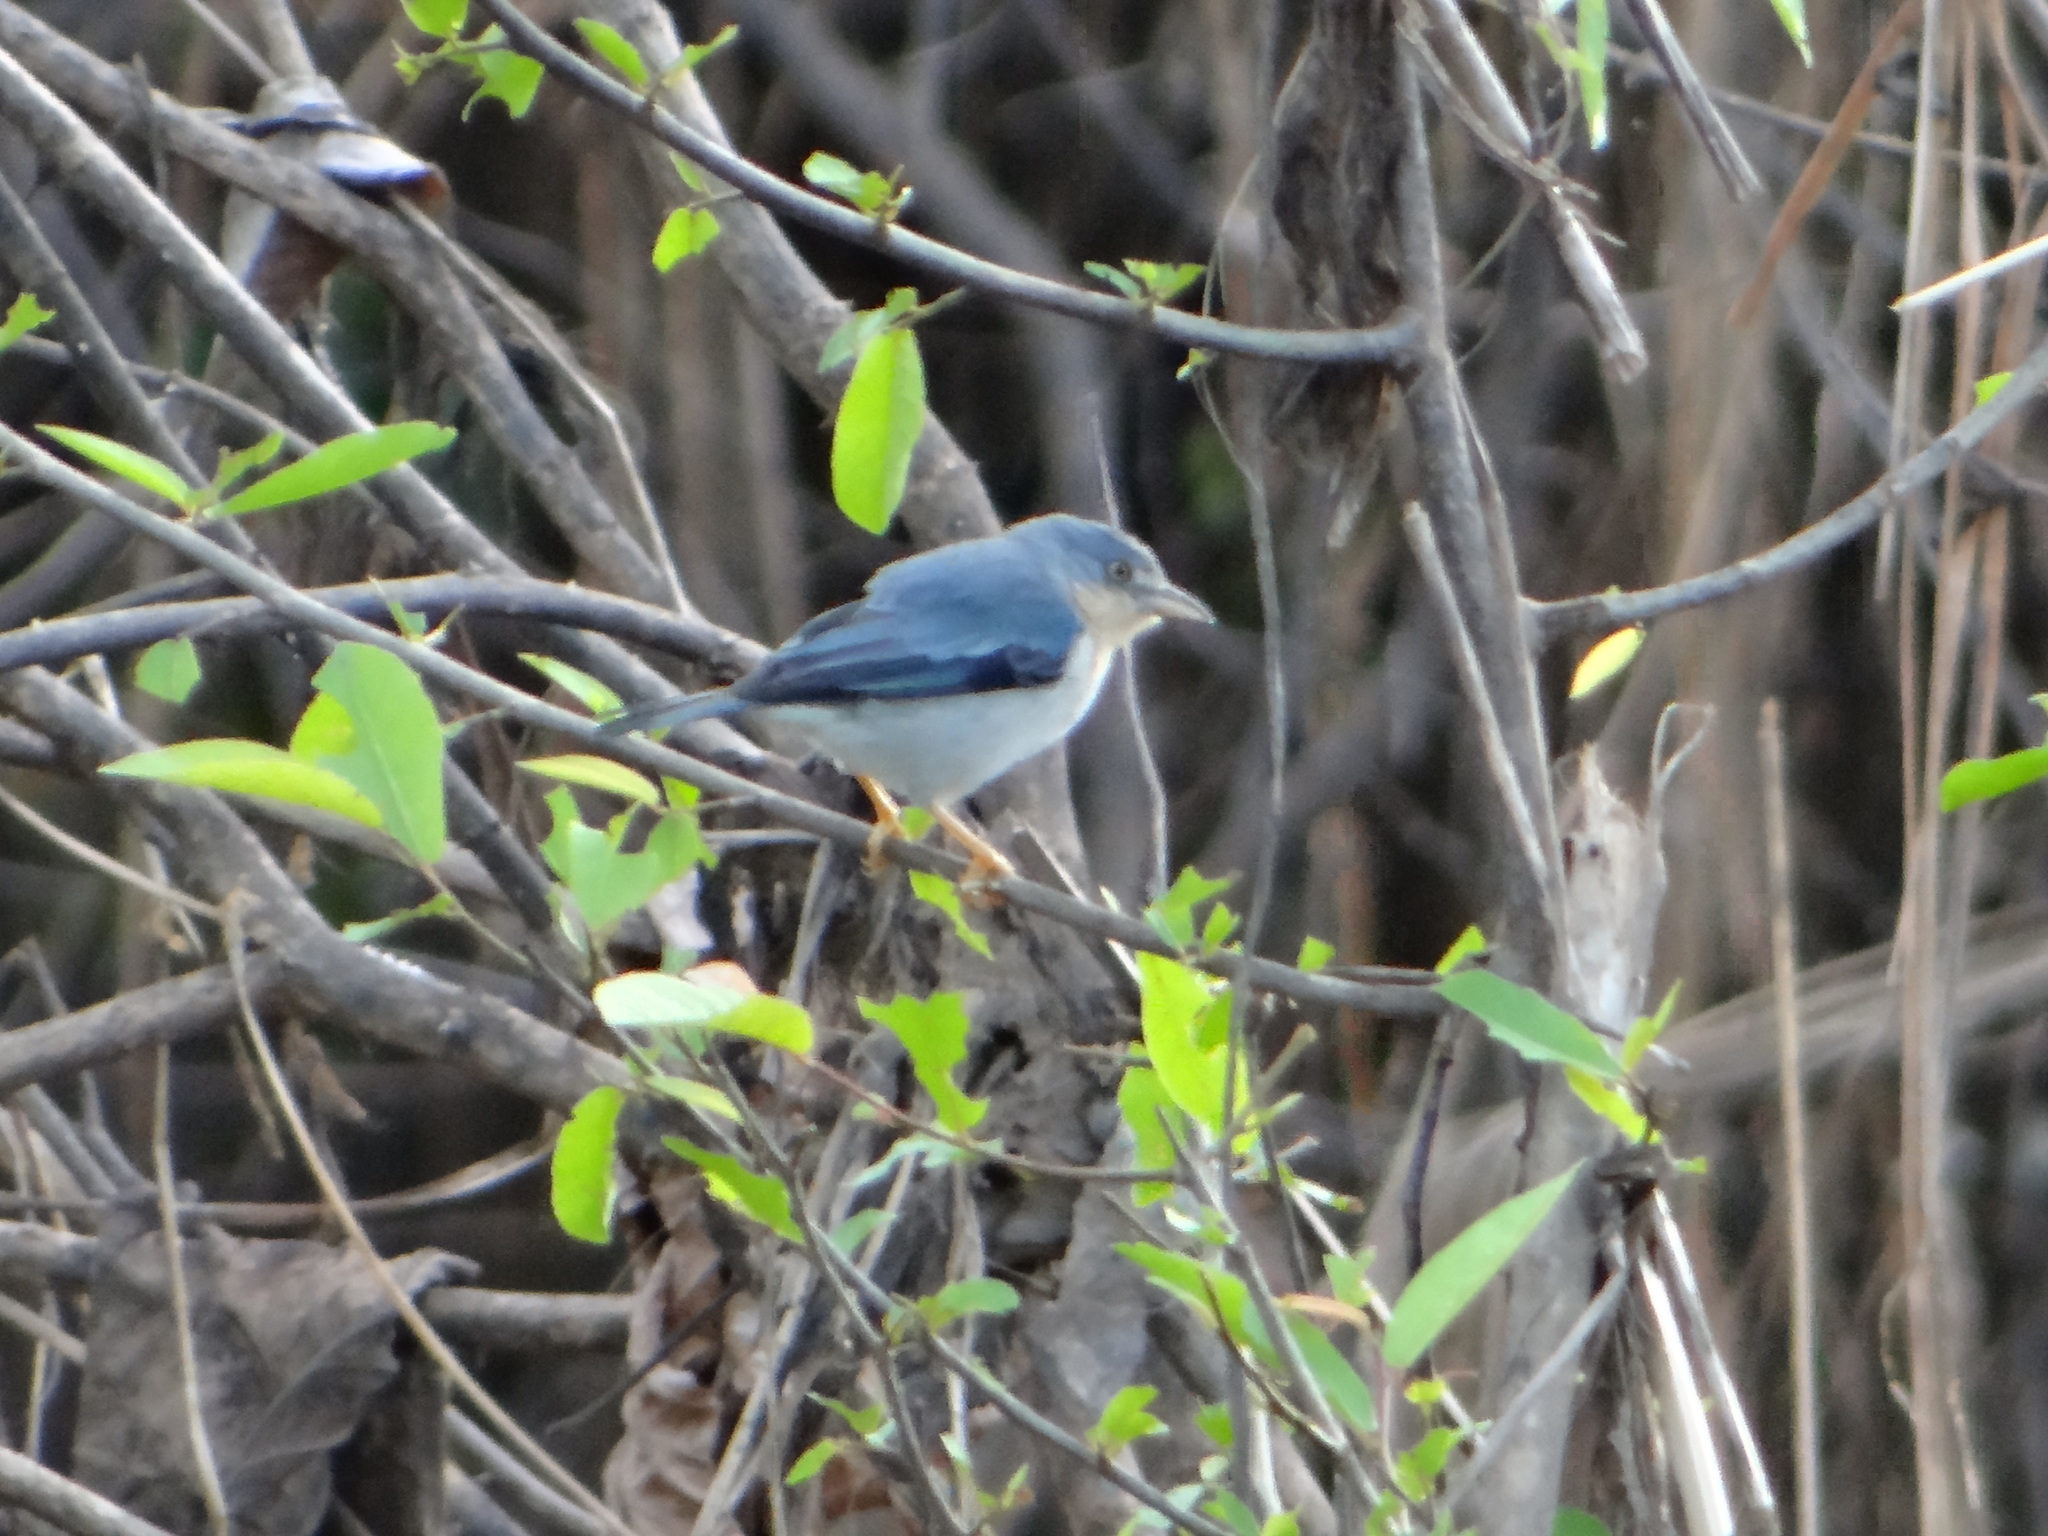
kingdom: Animalia
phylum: Chordata
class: Aves
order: Passeriformes
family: Thraupidae
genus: Nemosia
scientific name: Nemosia pileata
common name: Hooded tanager
